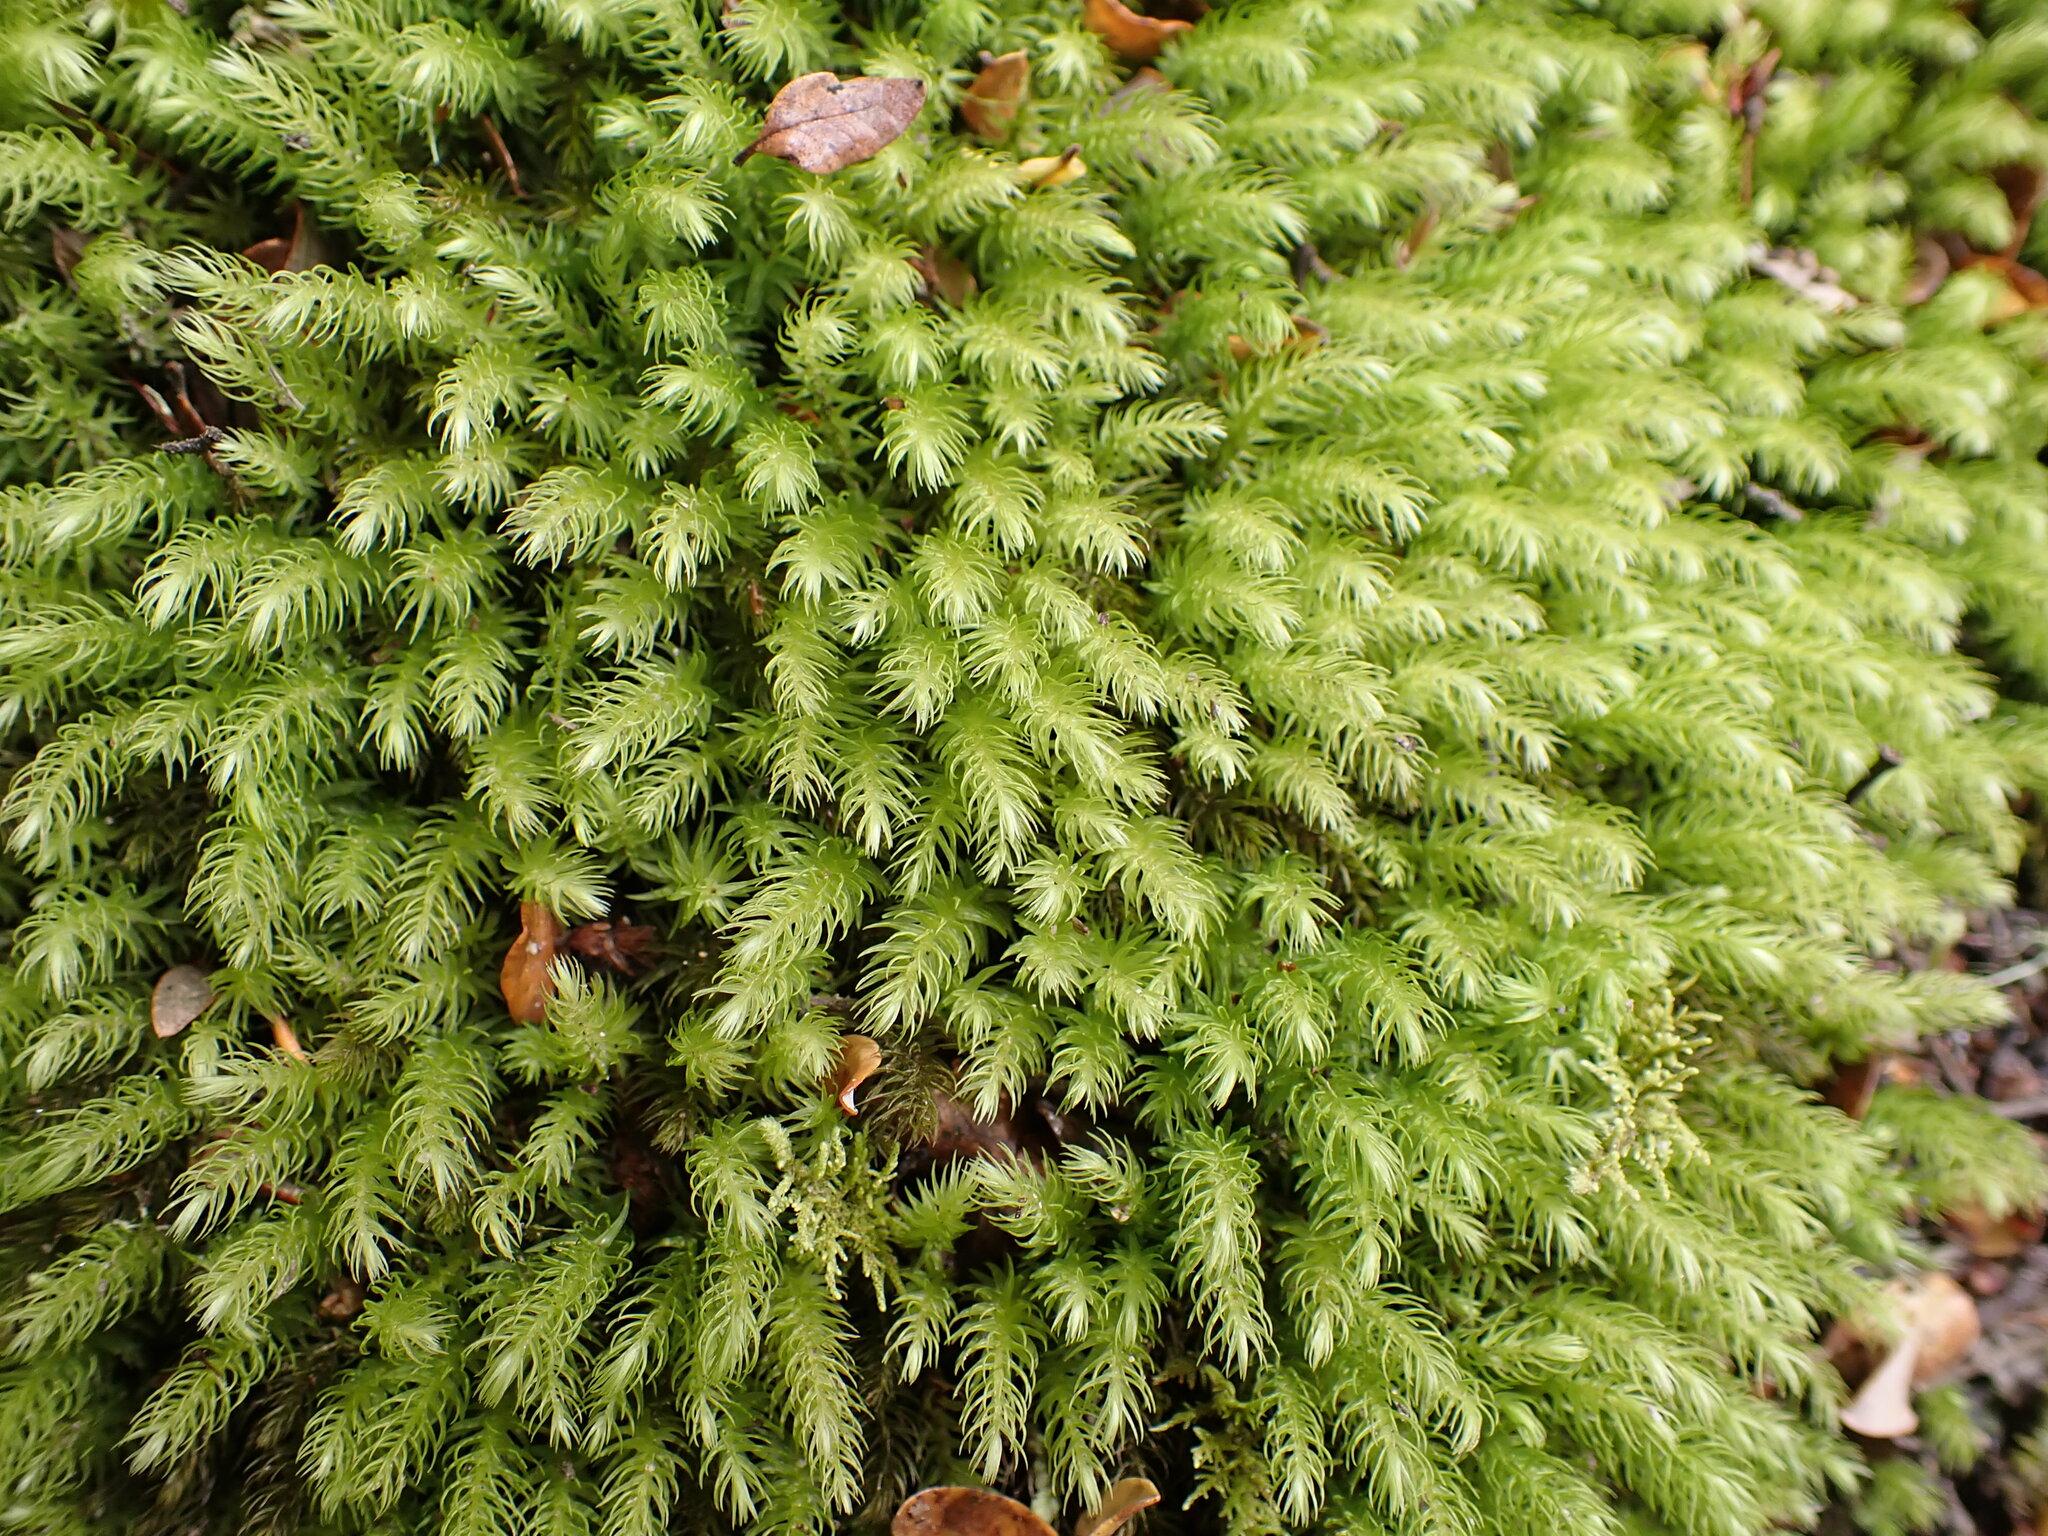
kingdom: Plantae
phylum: Bryophyta
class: Bryopsida
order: Aulacomniales
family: Aulacomniaceae
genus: Hymenodontopsis
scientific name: Hymenodontopsis mnioides
